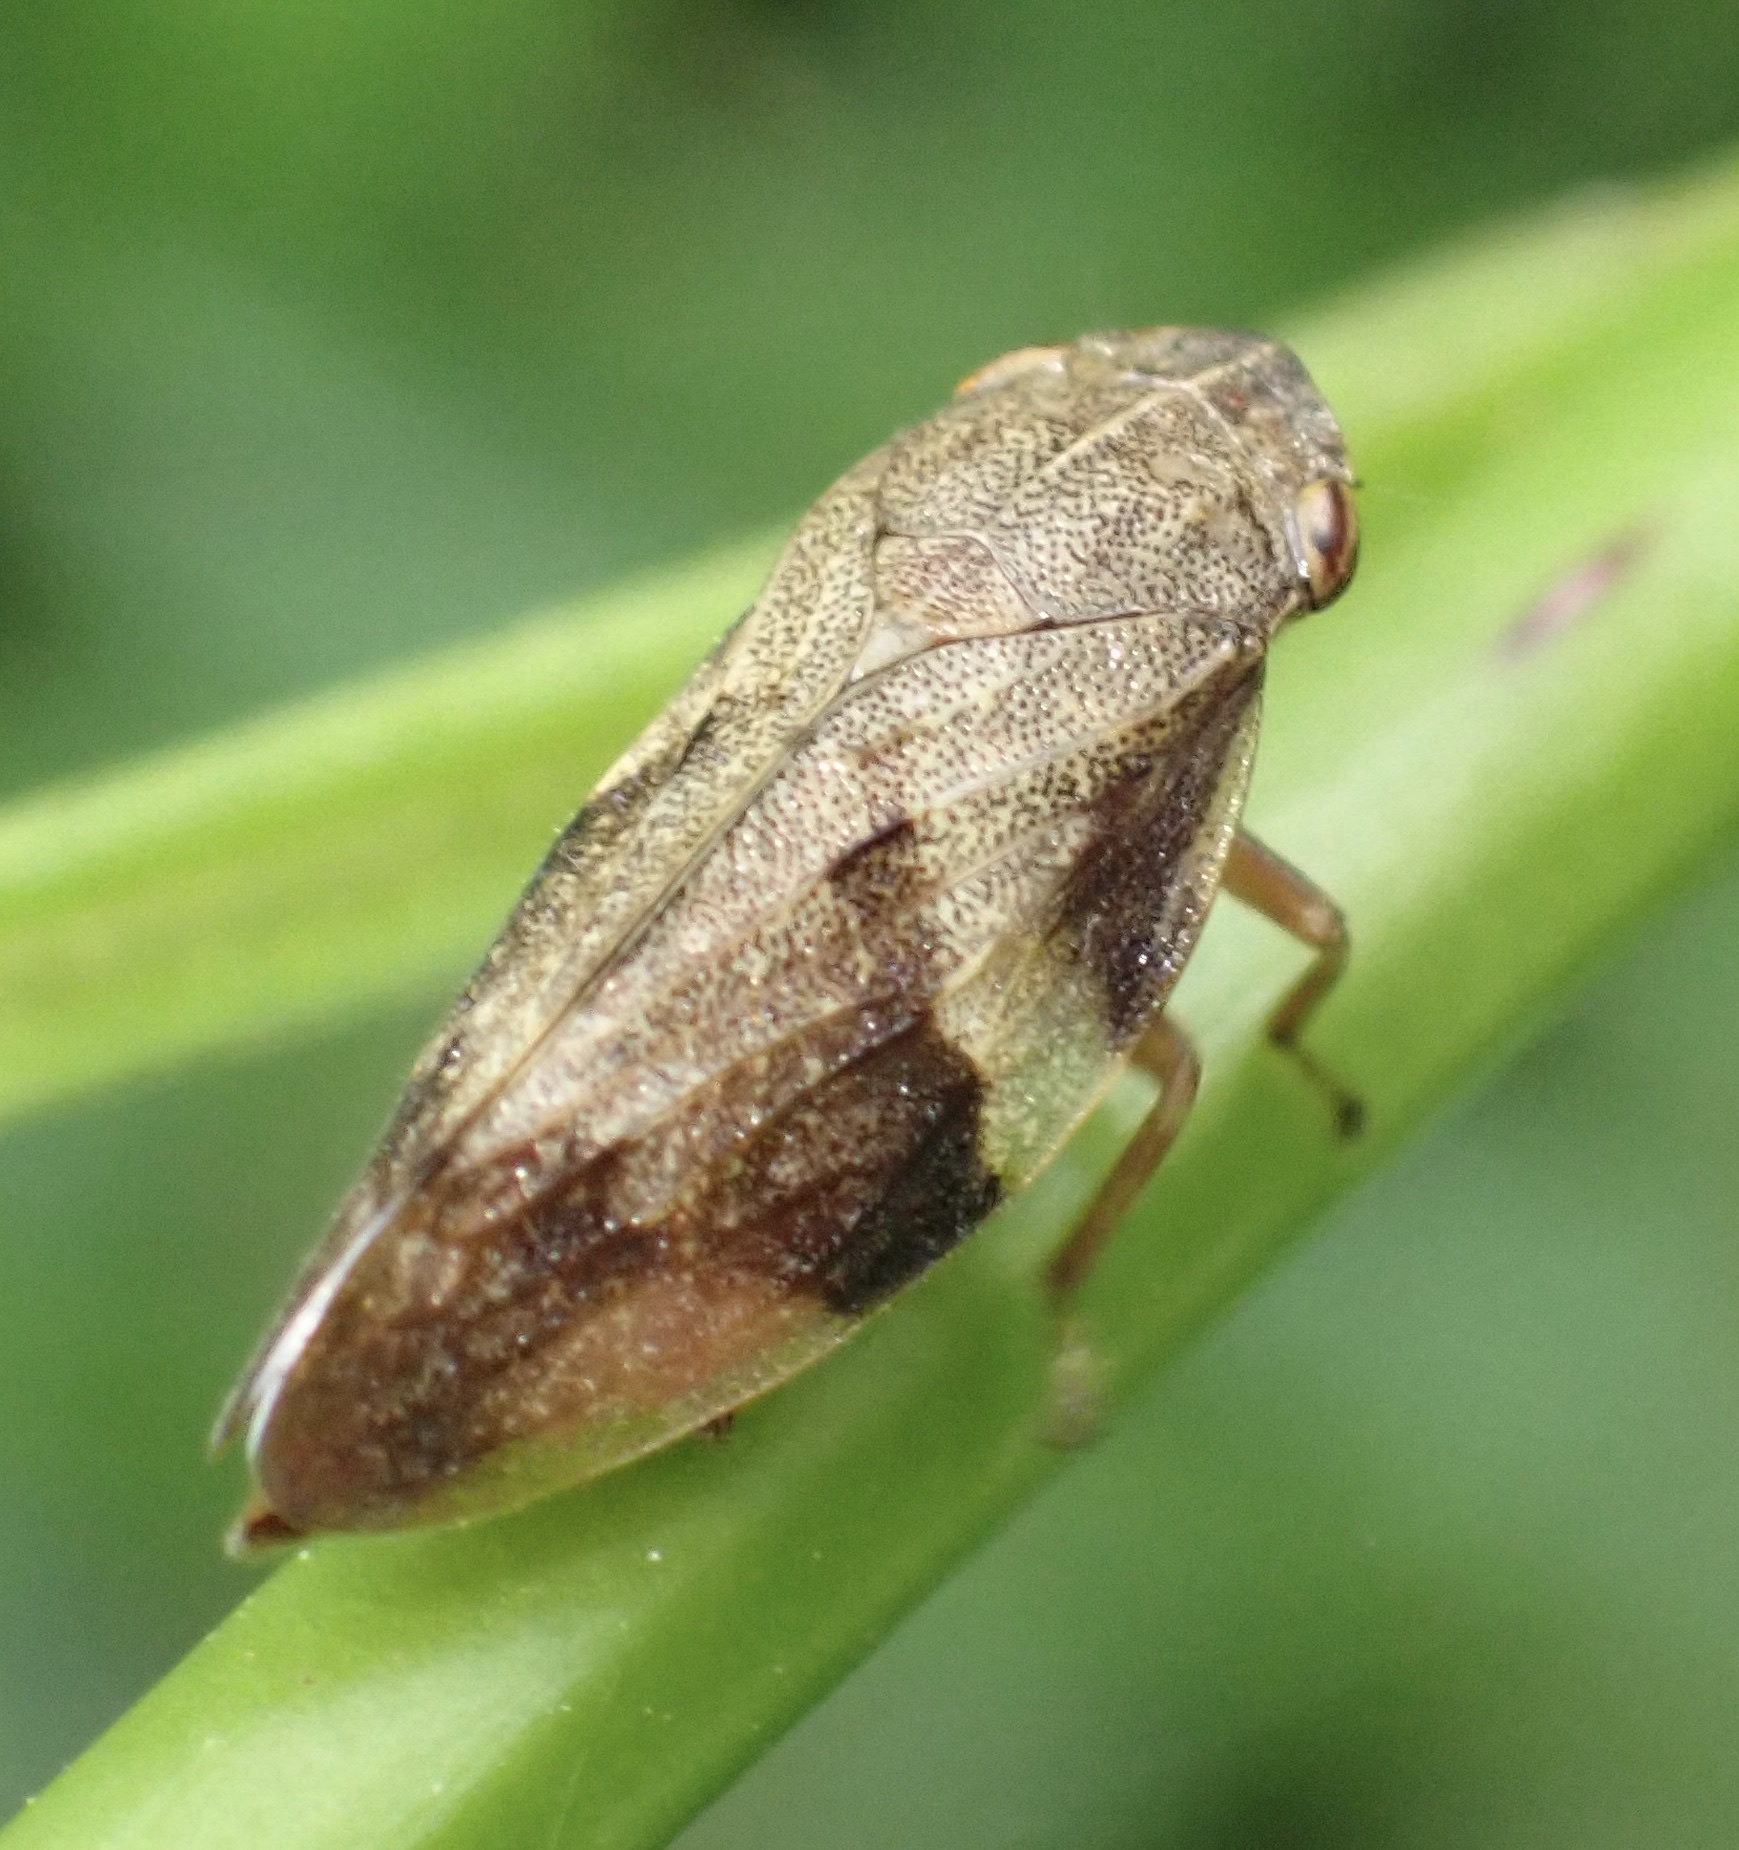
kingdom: Animalia
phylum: Arthropoda
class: Insecta
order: Hemiptera
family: Aphrophoridae
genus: Aphrophora
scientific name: Aphrophora alni
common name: European alder spittlebug
